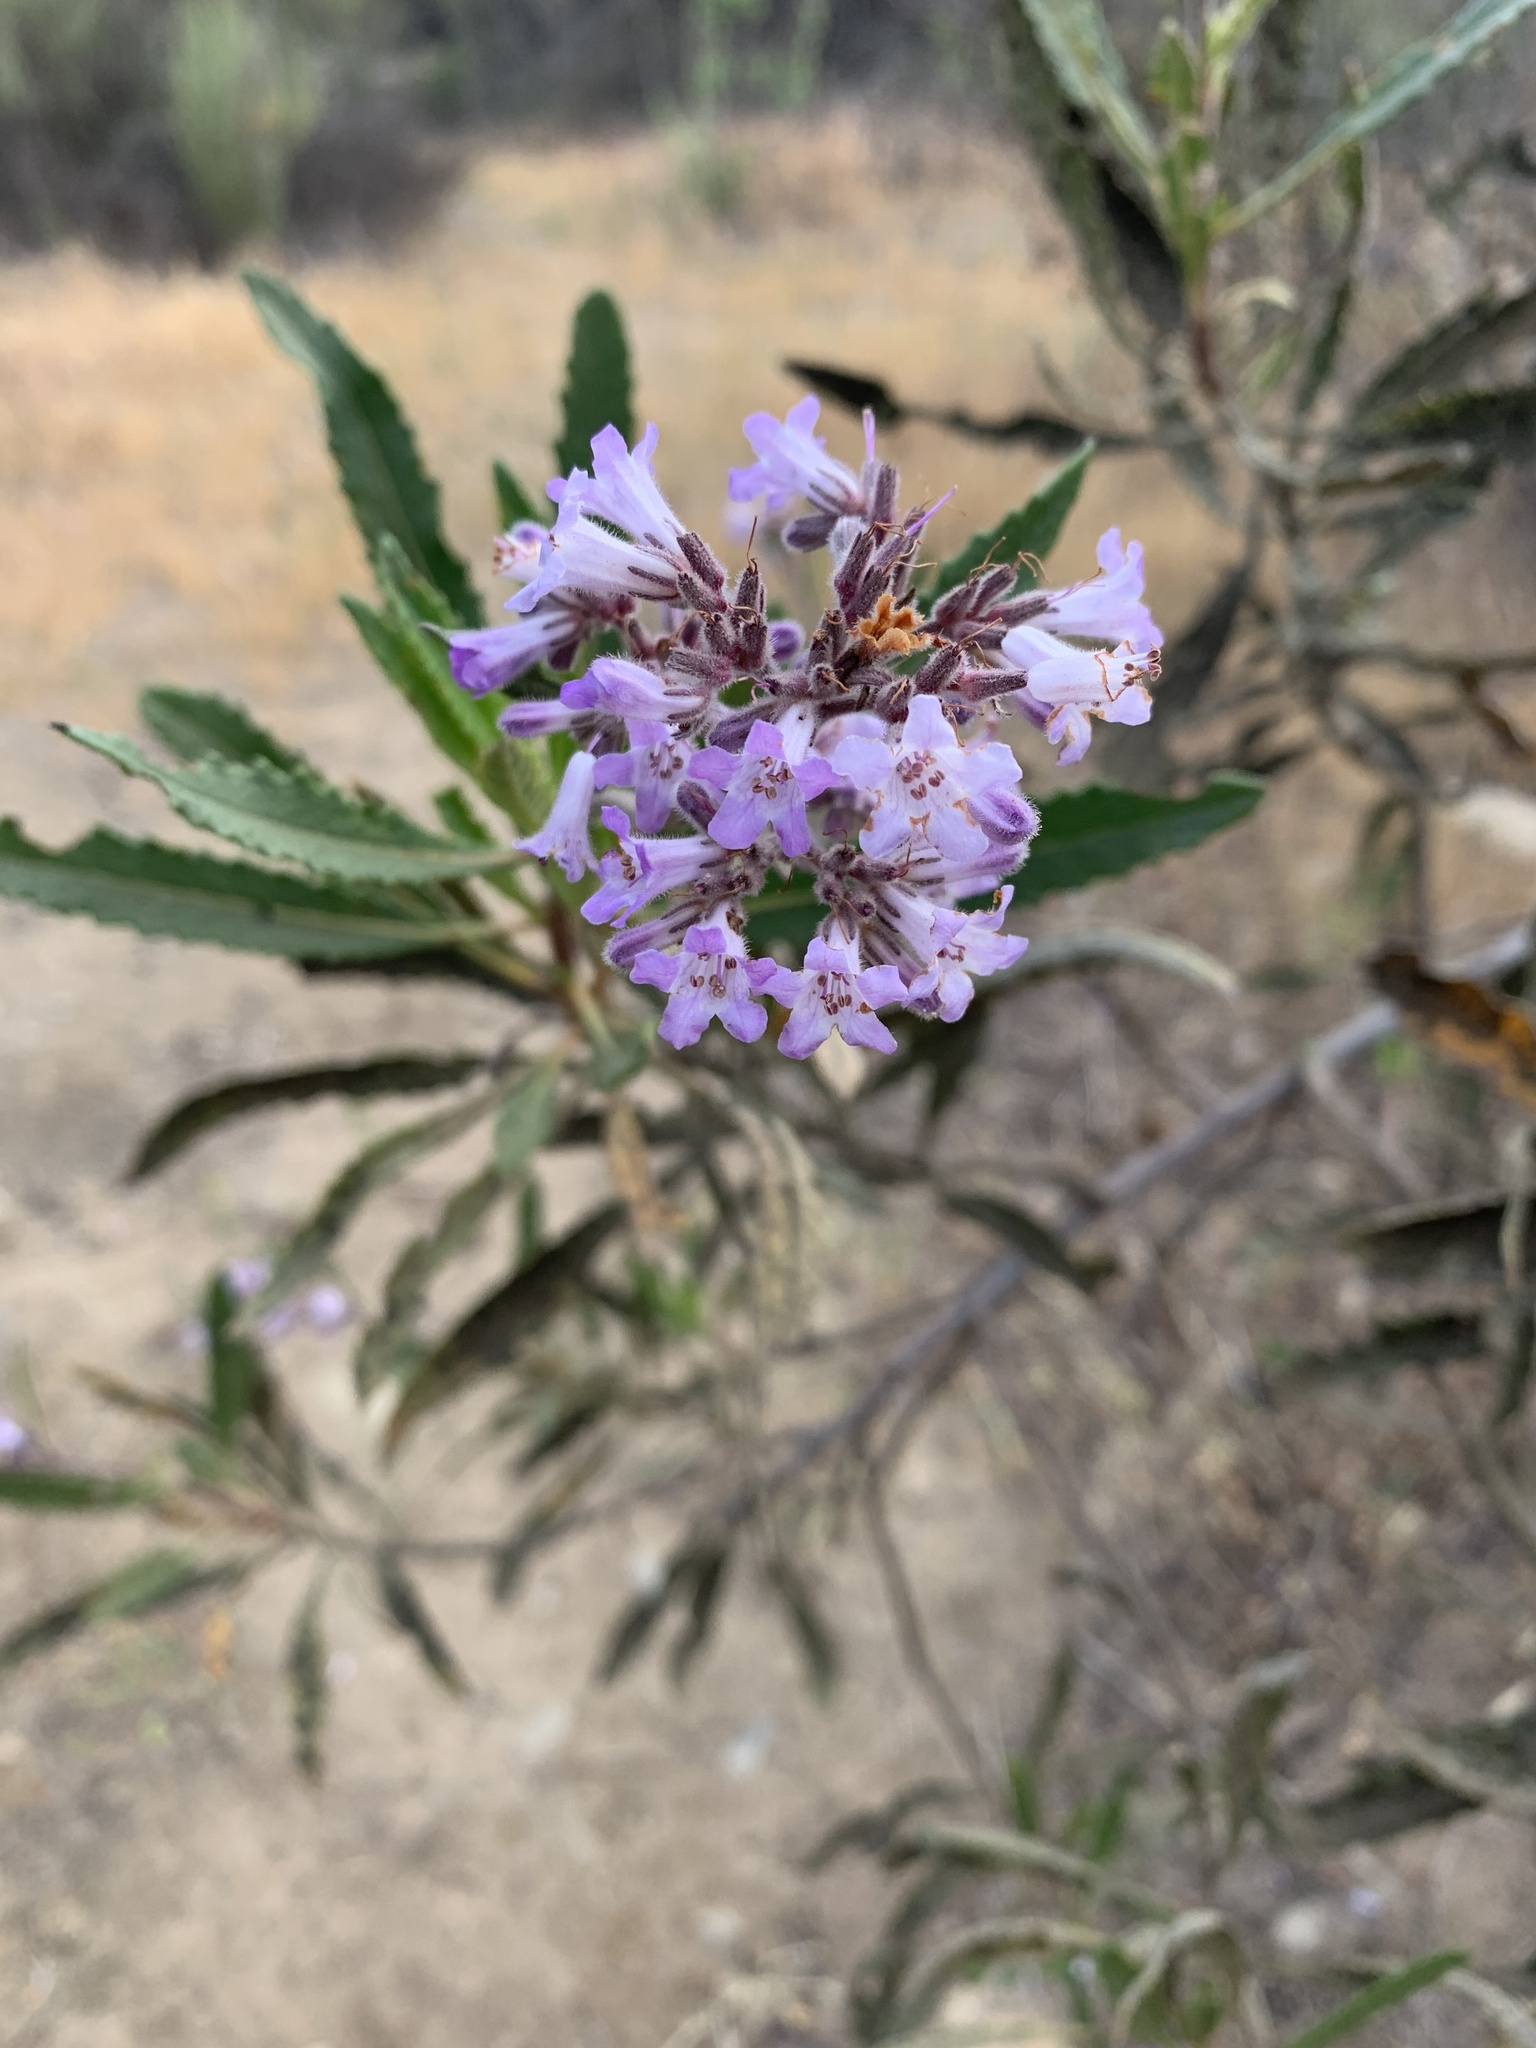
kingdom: Plantae
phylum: Tracheophyta
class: Magnoliopsida
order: Boraginales
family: Namaceae
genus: Eriodictyon
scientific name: Eriodictyon crassifolium
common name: Thick-leaf yerba-santa
